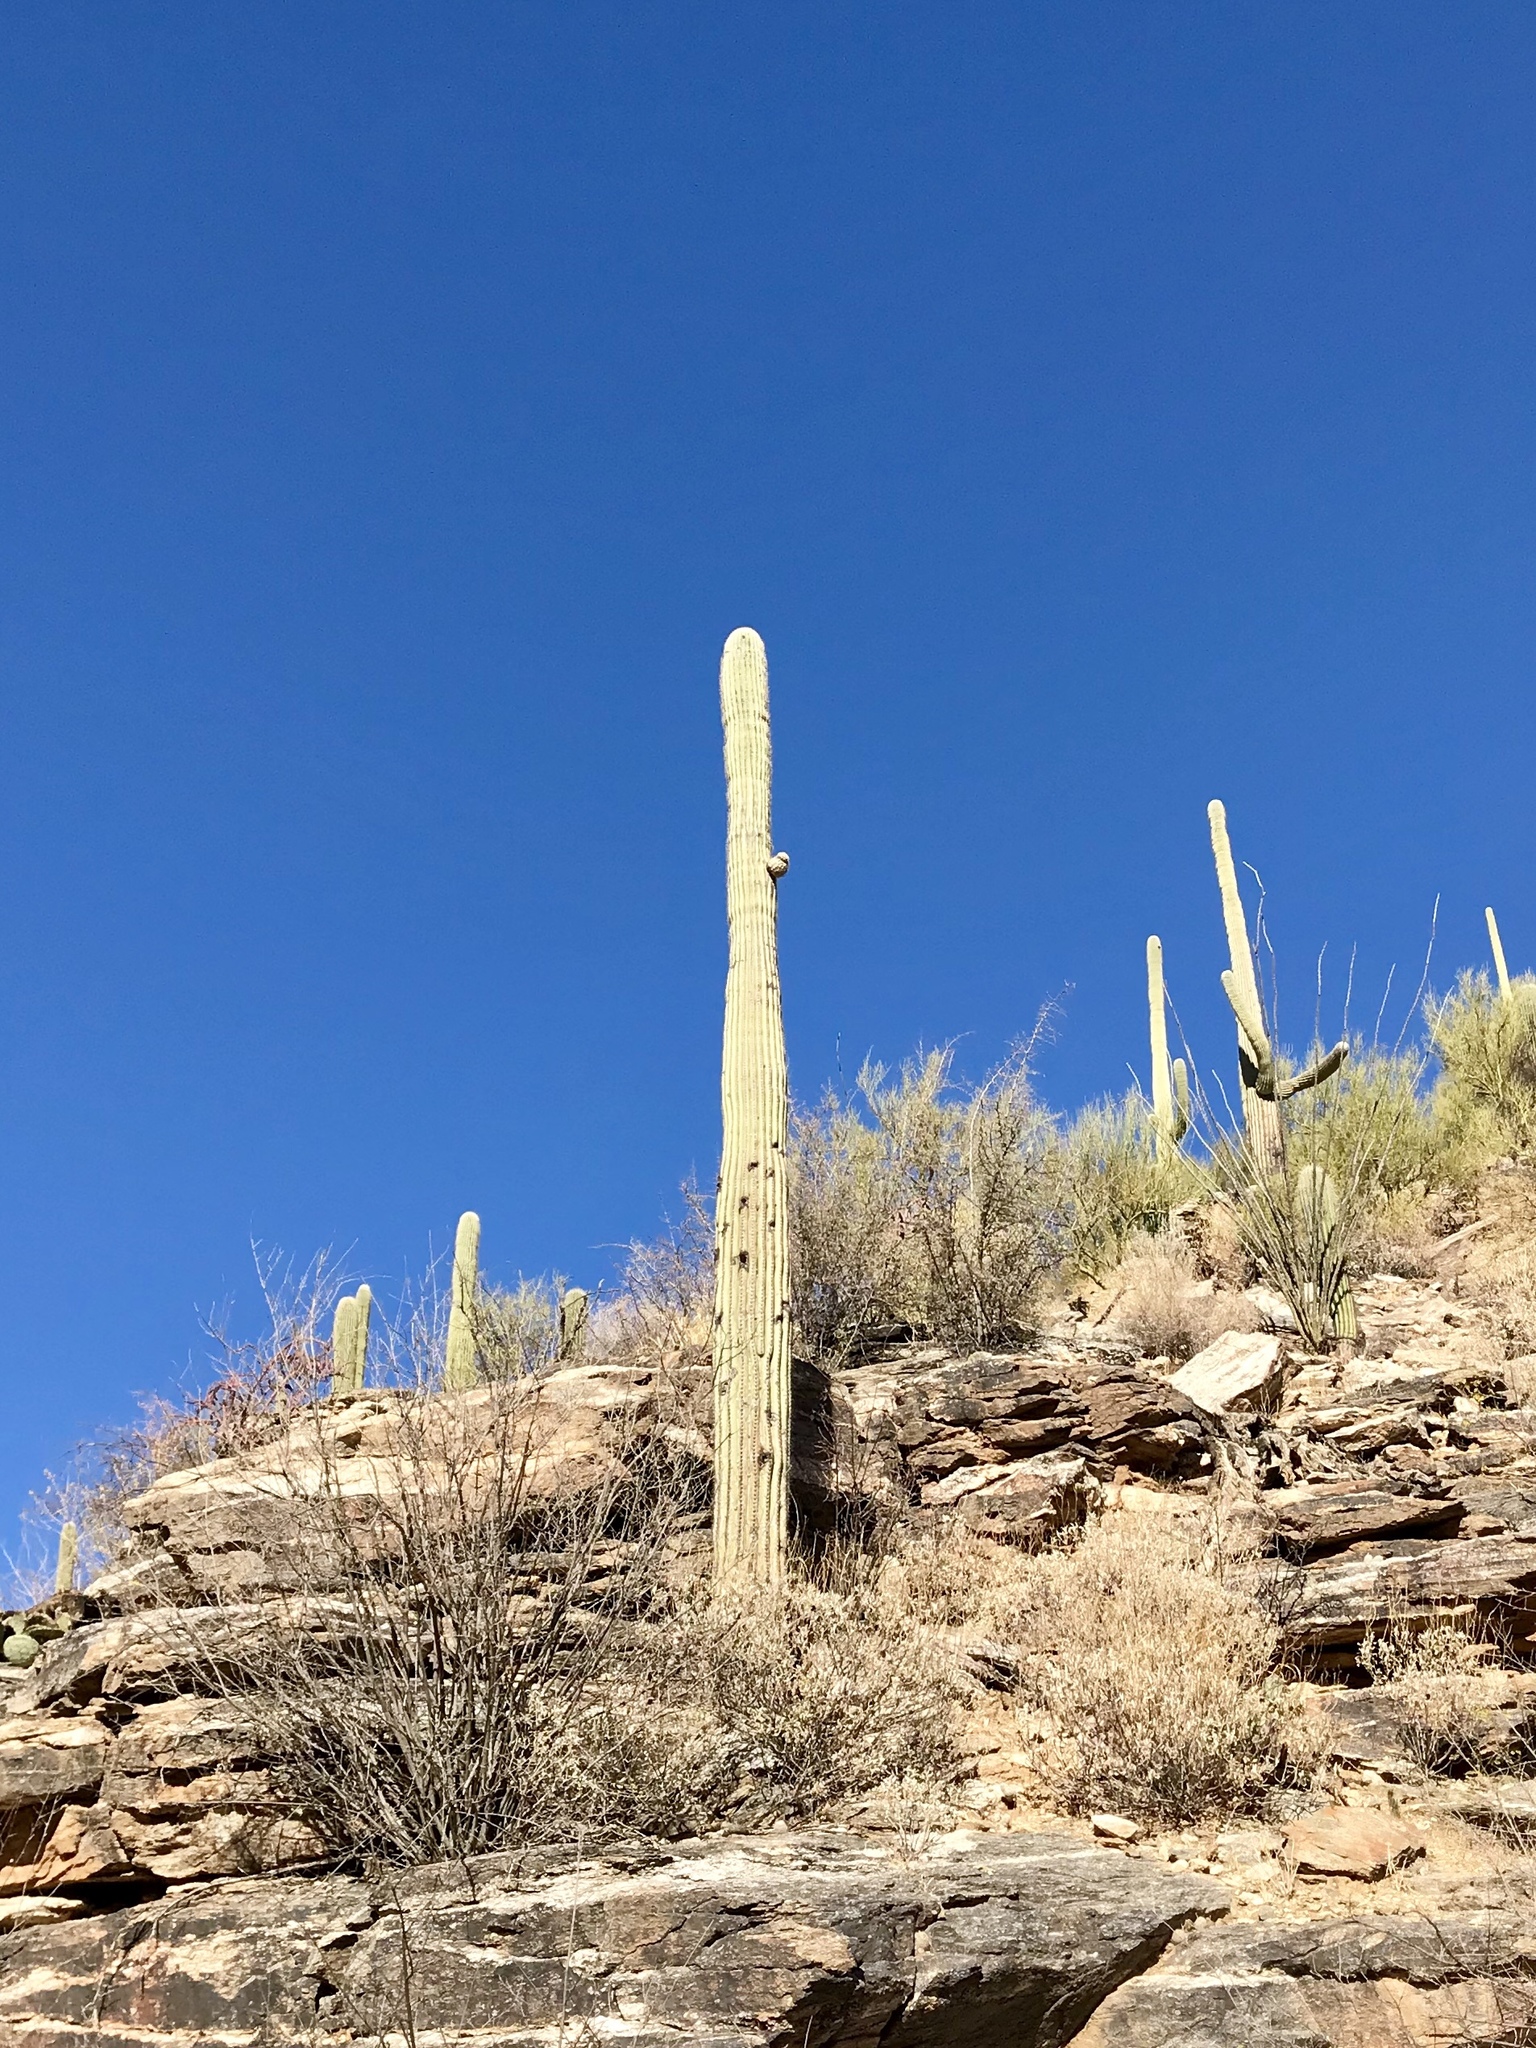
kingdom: Plantae
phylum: Tracheophyta
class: Magnoliopsida
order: Caryophyllales
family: Cactaceae
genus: Carnegiea
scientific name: Carnegiea gigantea
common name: Saguaro
